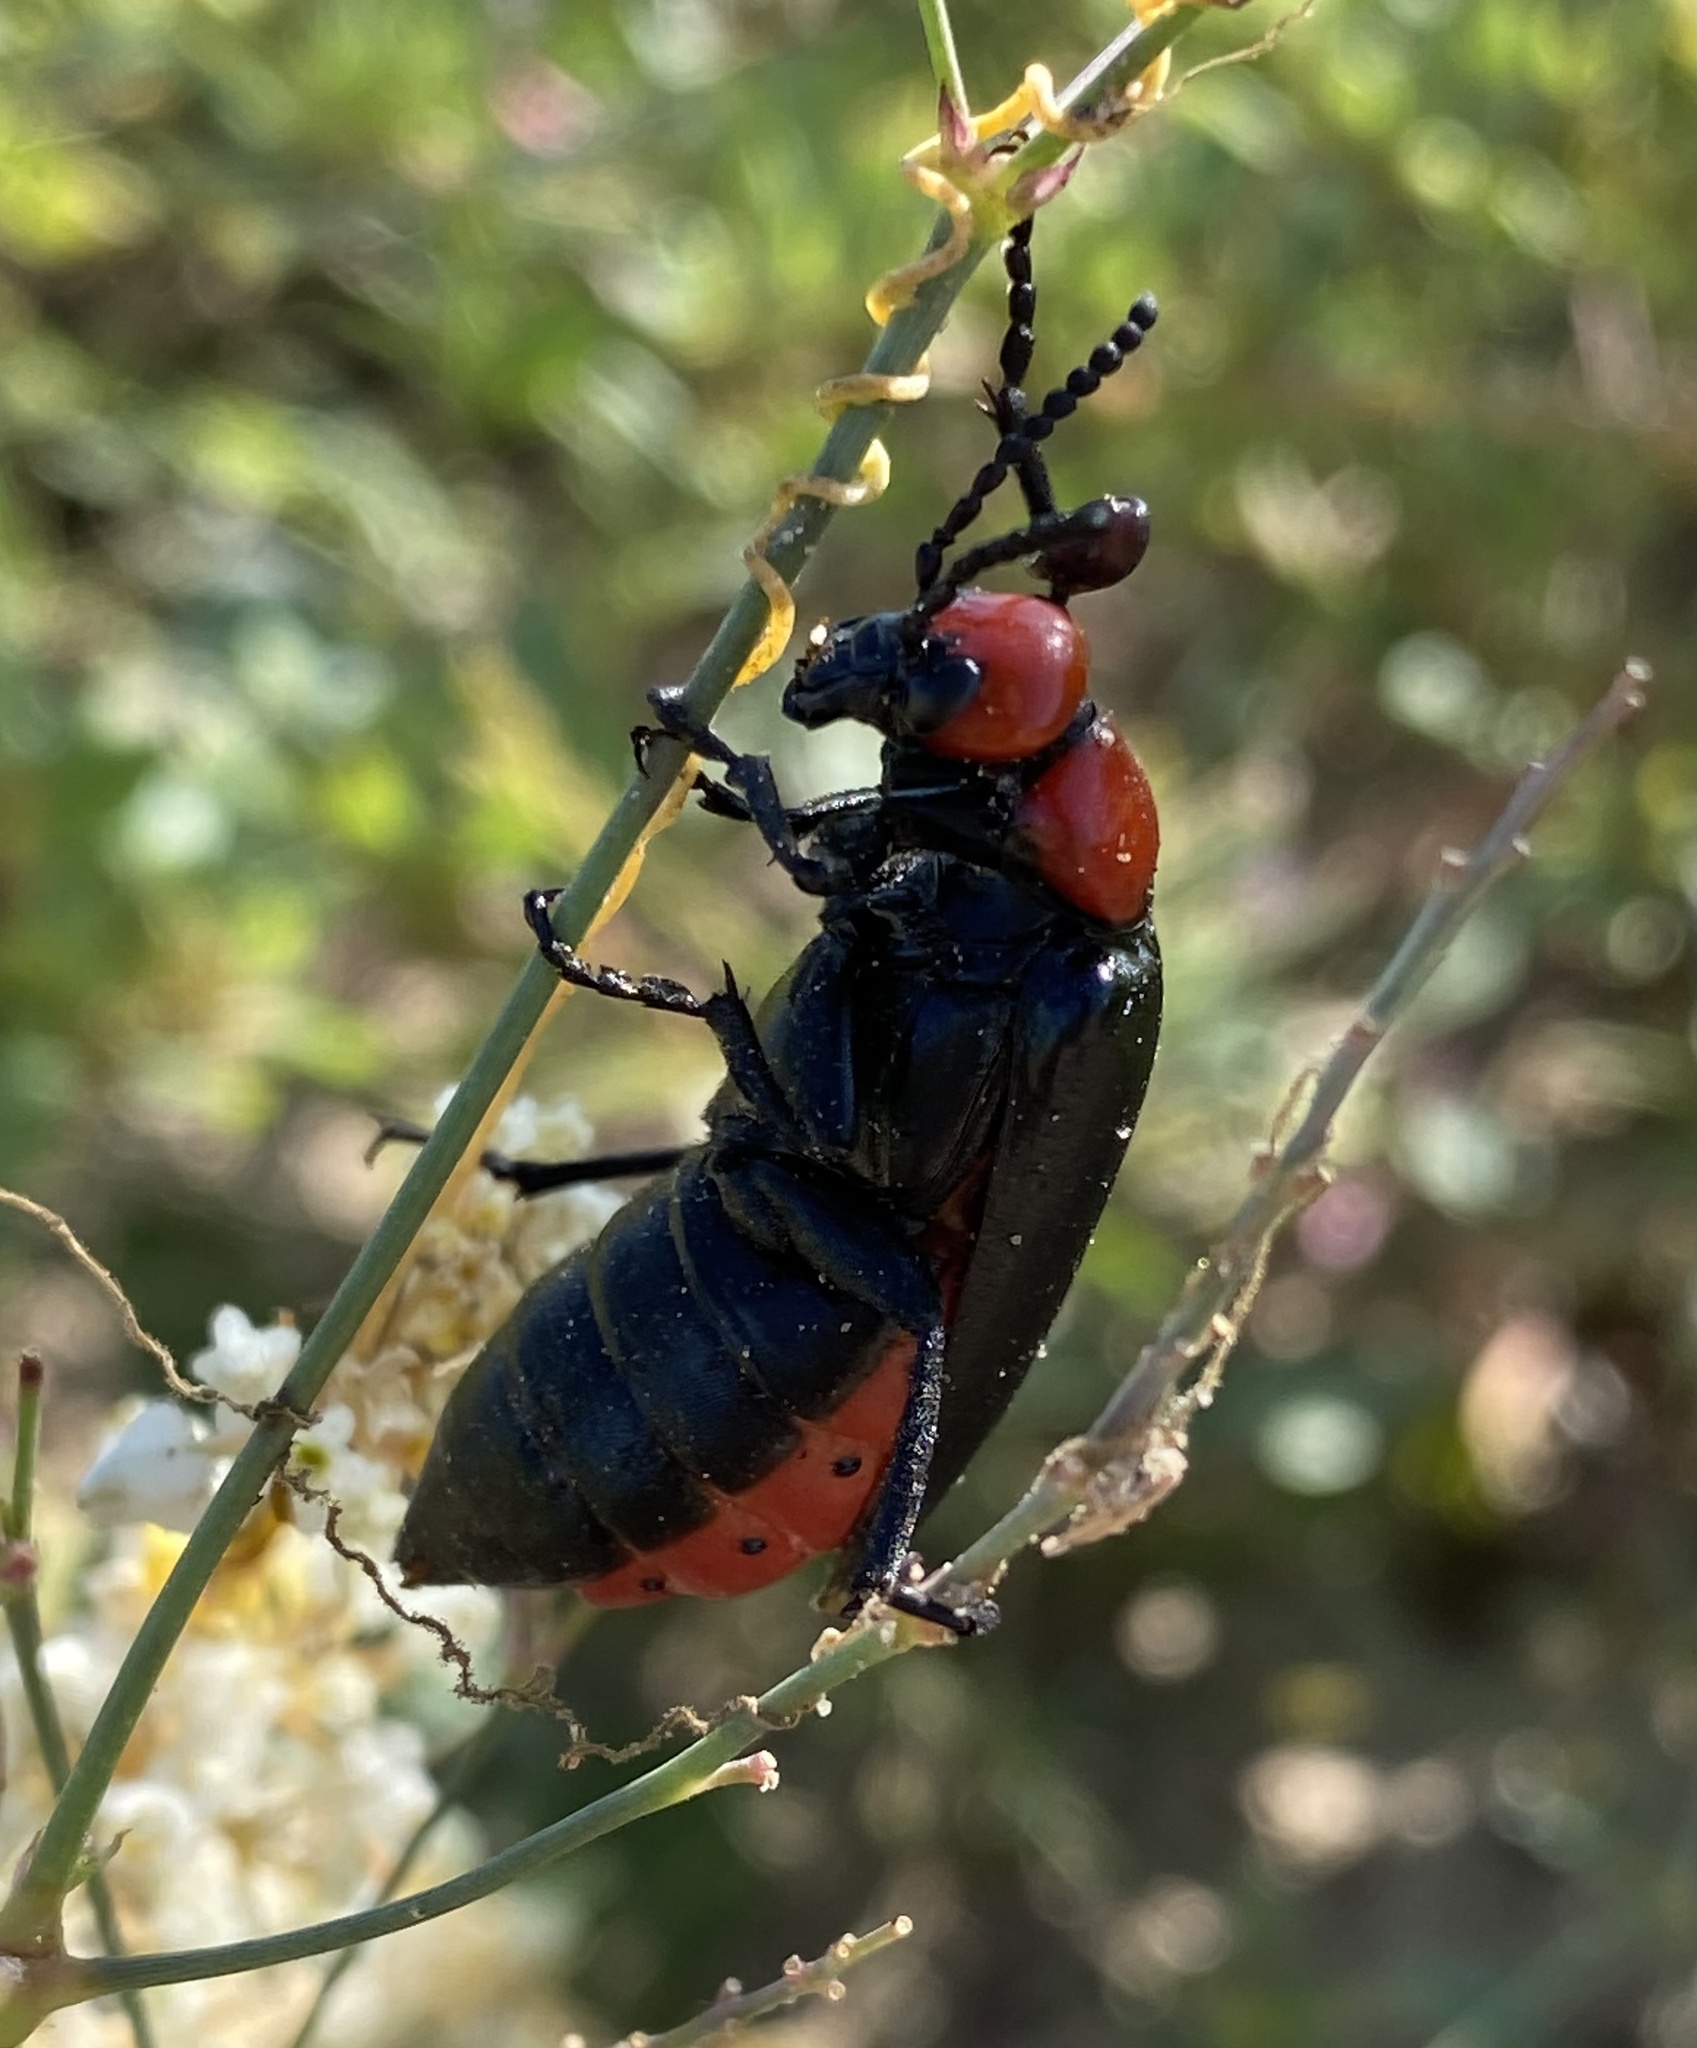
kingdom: Animalia
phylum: Arthropoda
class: Insecta
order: Coleoptera
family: Meloidae
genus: Lytta
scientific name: Lytta magister
